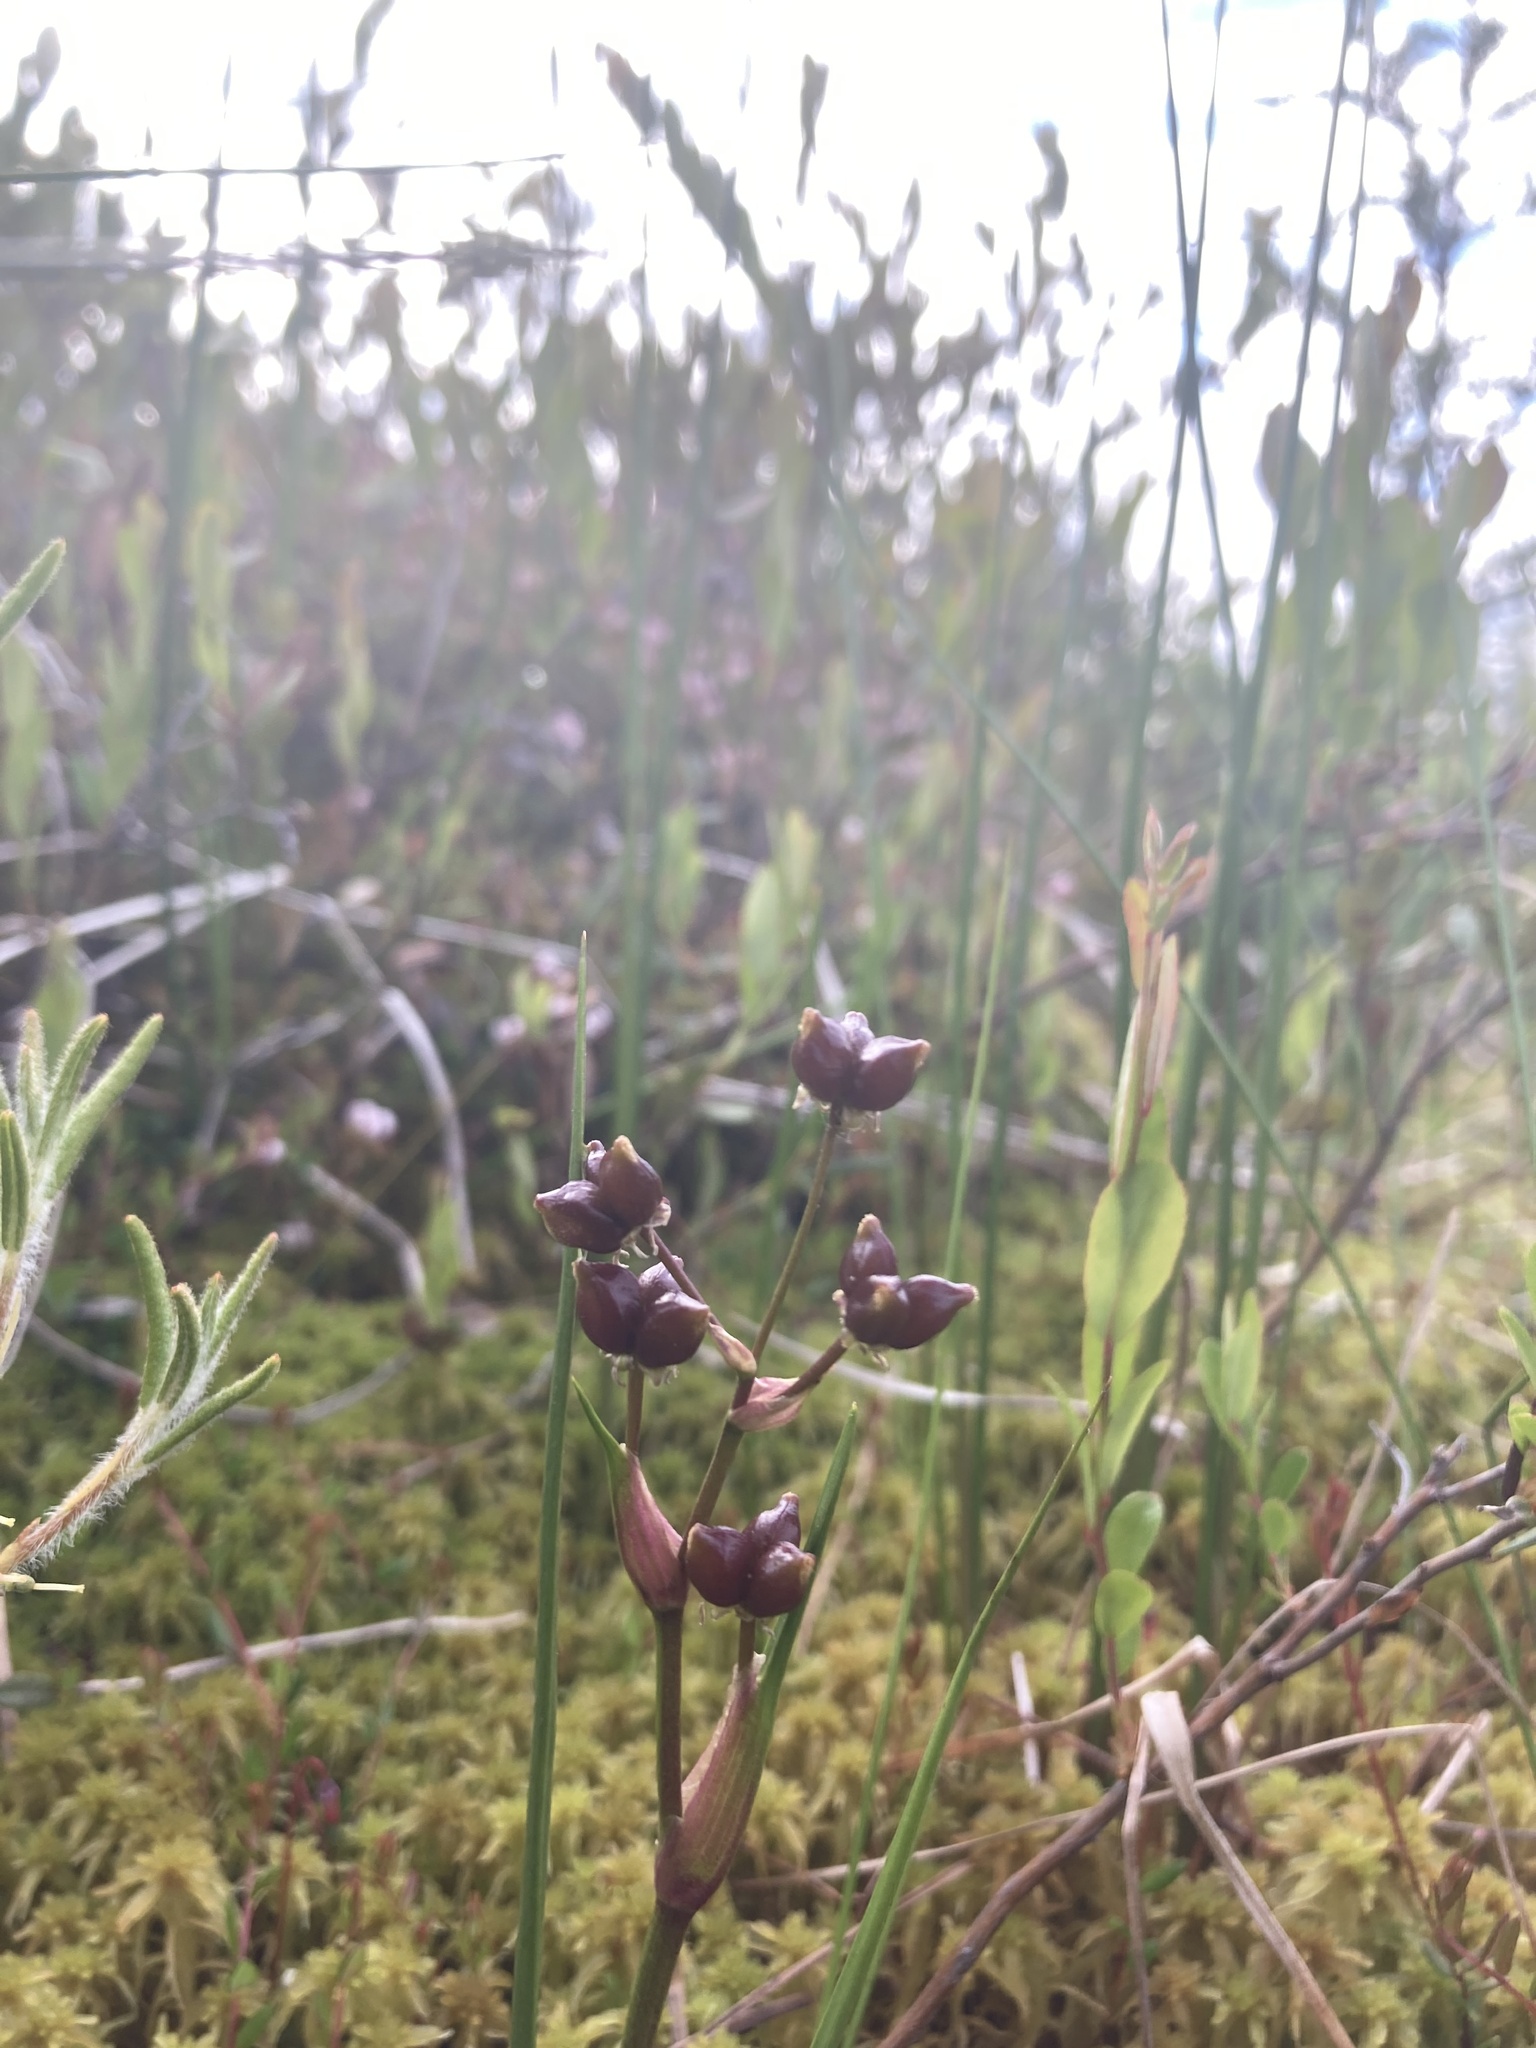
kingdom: Plantae
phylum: Tracheophyta
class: Liliopsida
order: Alismatales
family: Scheuchzeriaceae
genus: Scheuchzeria
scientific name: Scheuchzeria palustris
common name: Rannoch-rush
